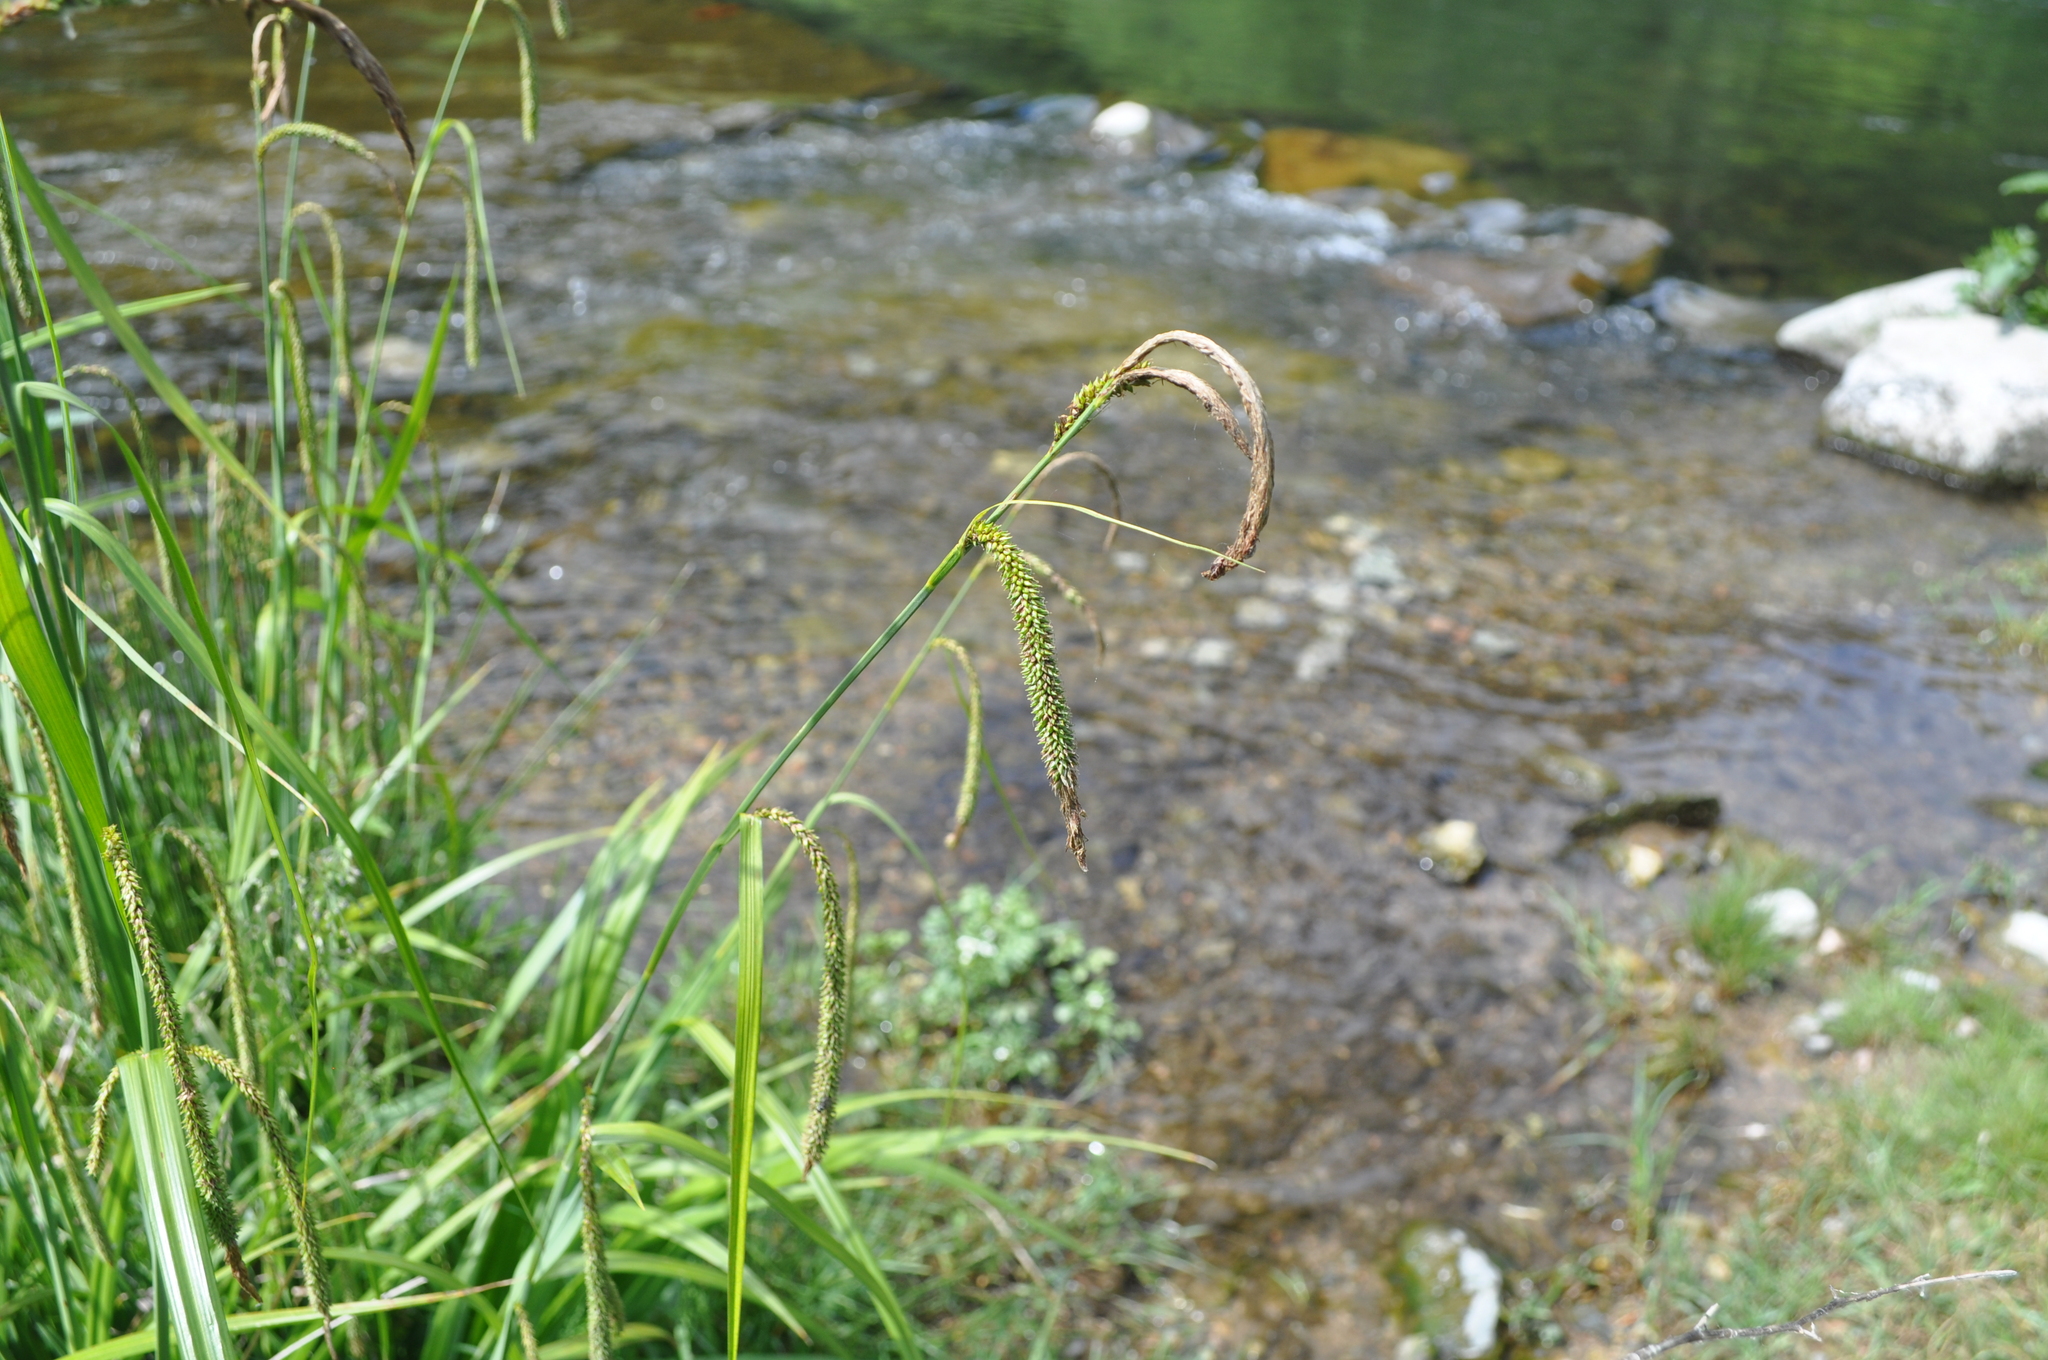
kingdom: Plantae
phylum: Tracheophyta
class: Liliopsida
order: Poales
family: Cyperaceae
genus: Carex
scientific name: Carex pendula
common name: Pendulous sedge
